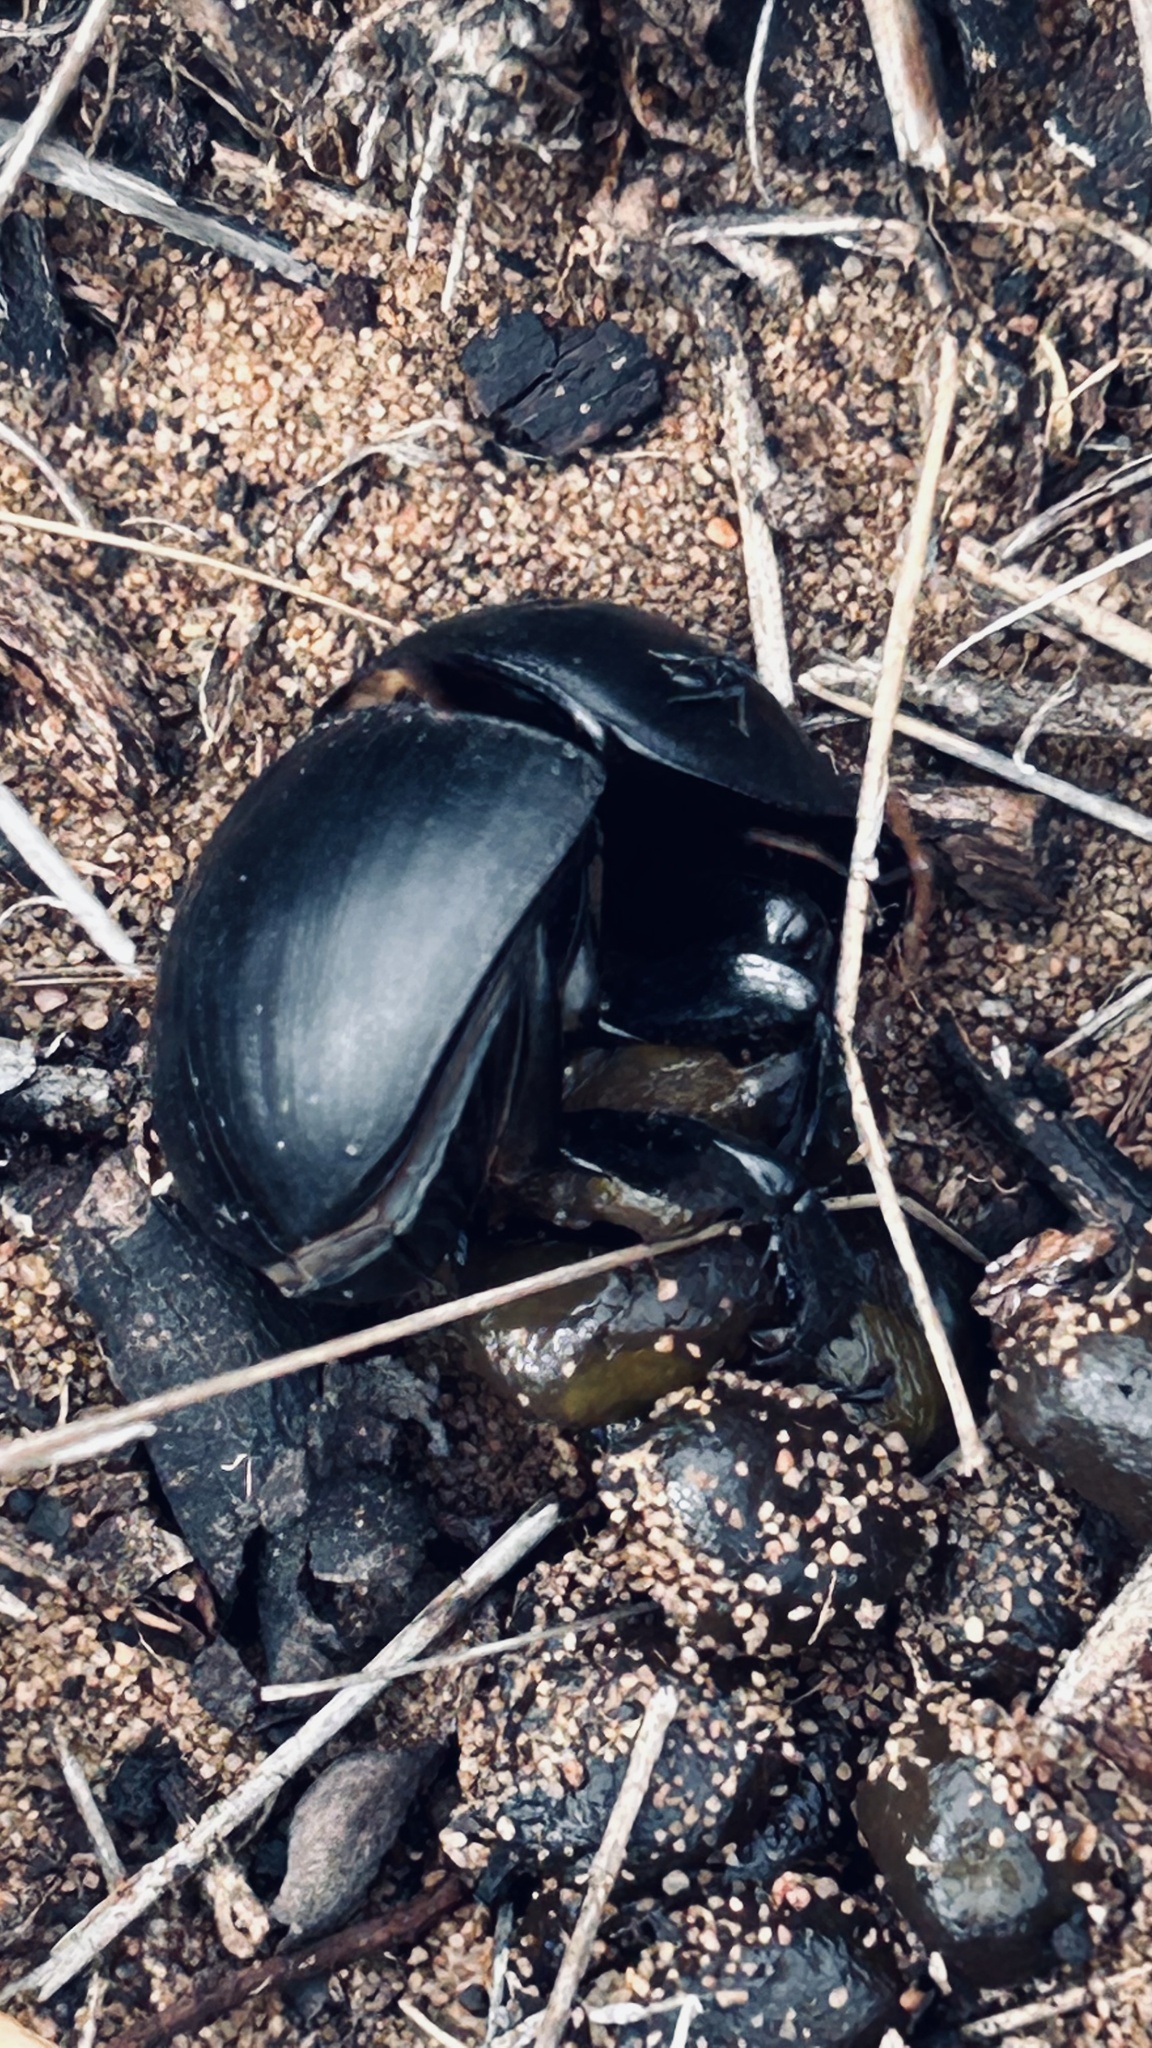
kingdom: Animalia
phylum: Arthropoda
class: Insecta
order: Coleoptera
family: Scarabaeidae
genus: Circellium
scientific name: Circellium bacchus
